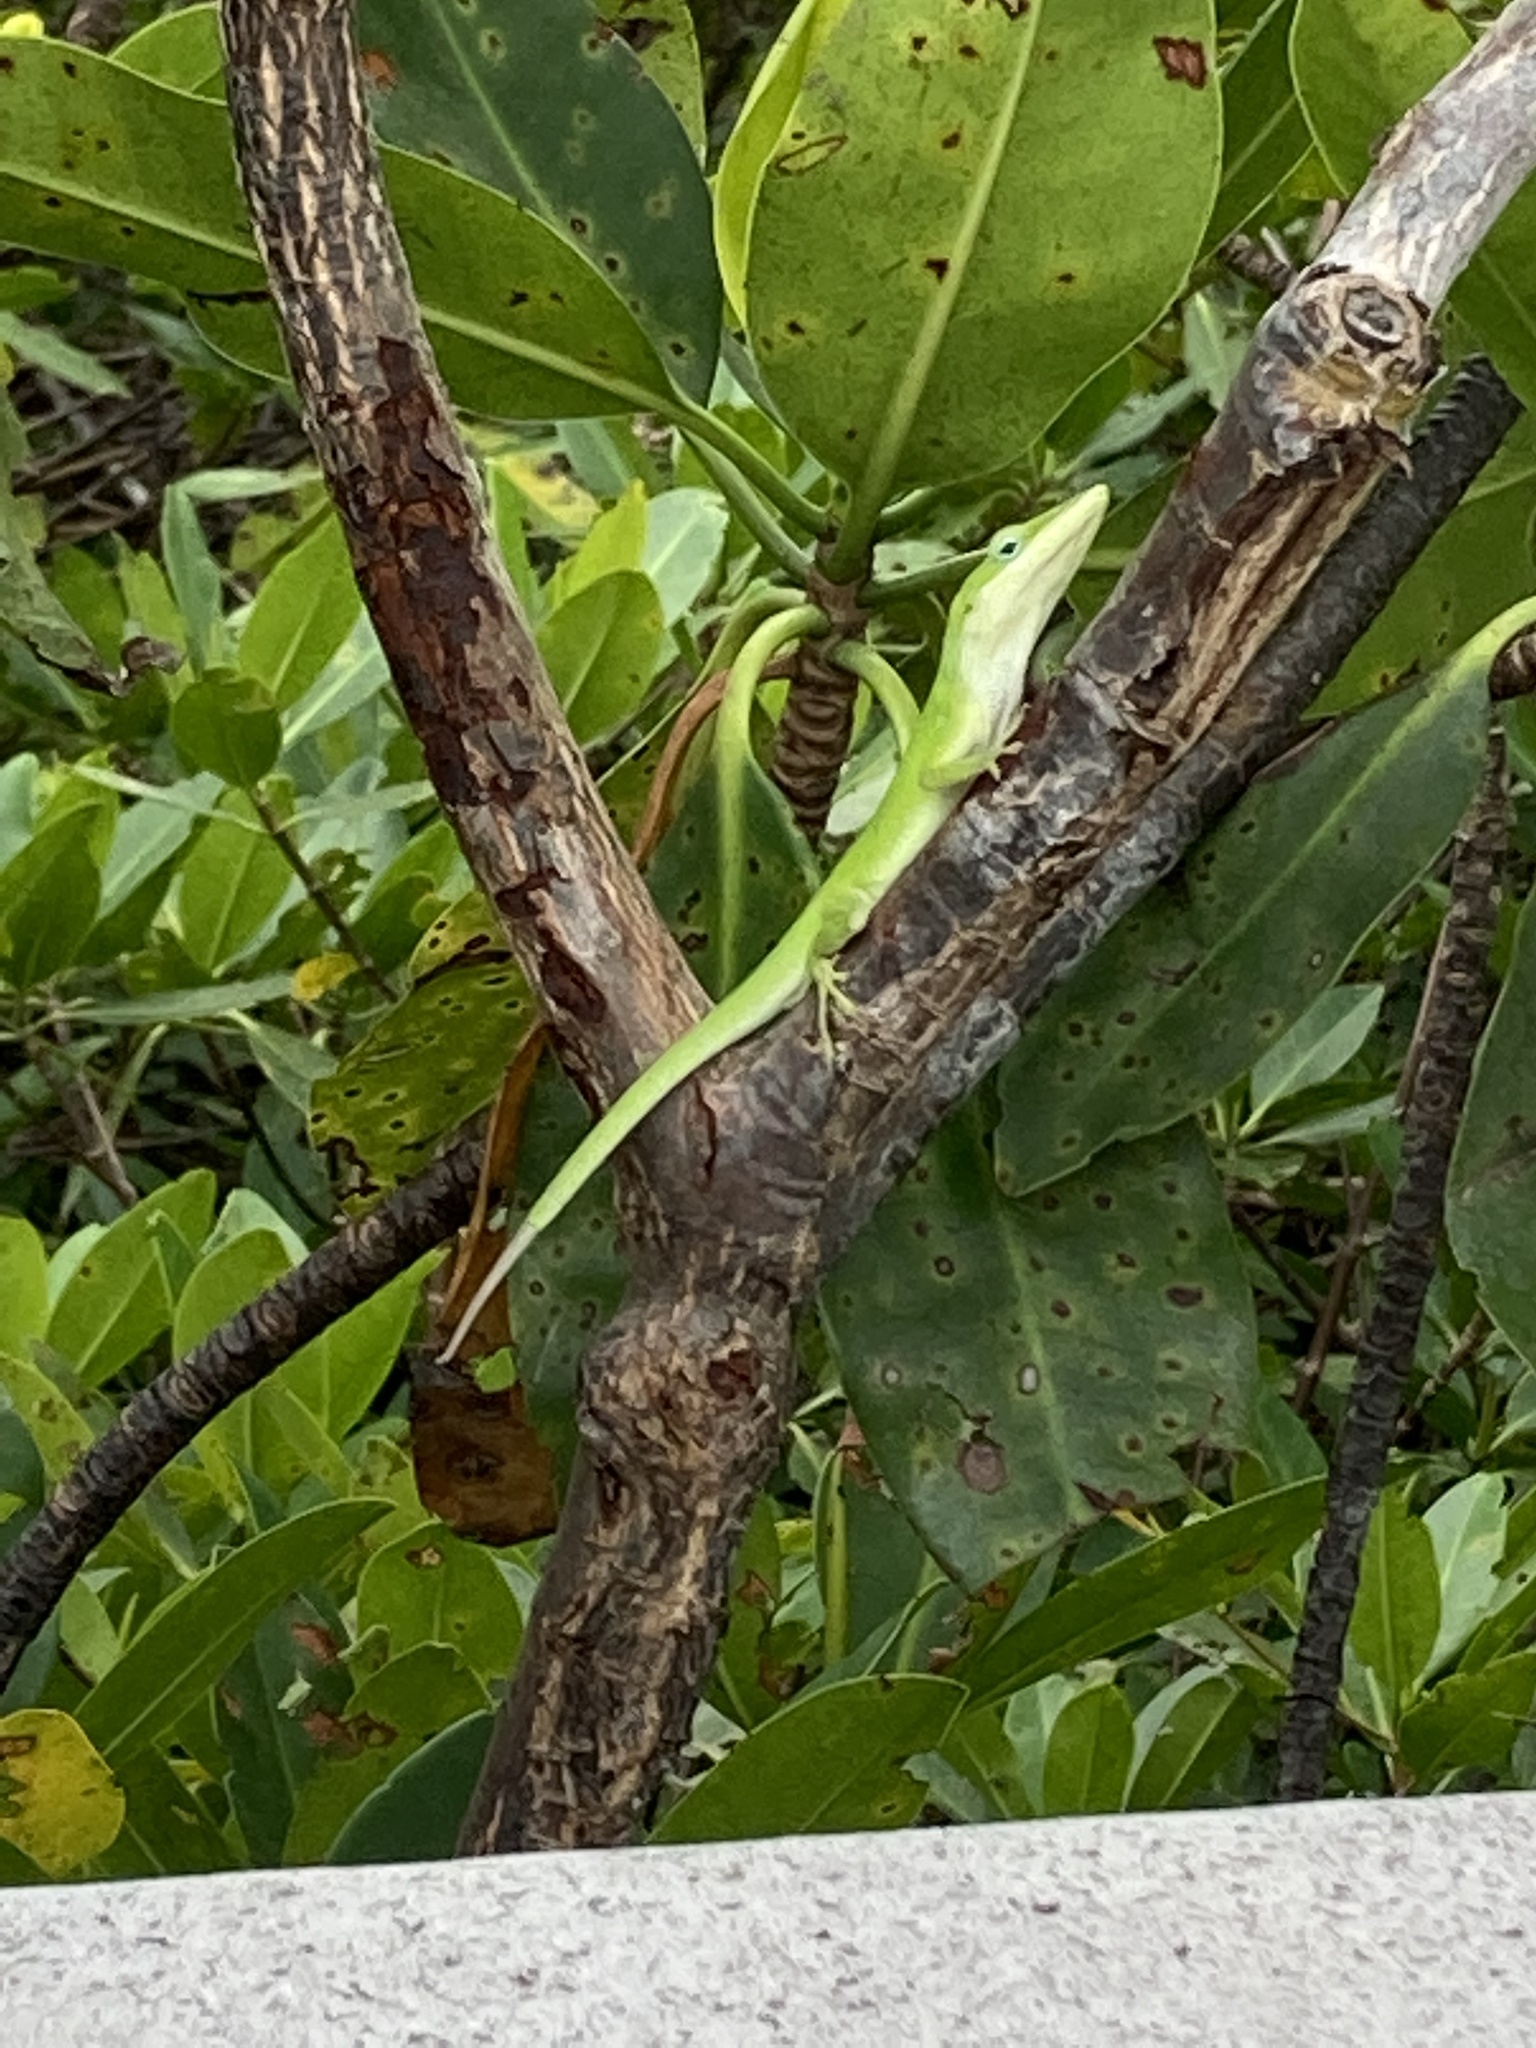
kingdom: Animalia
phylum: Chordata
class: Squamata
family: Dactyloidae
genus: Anolis
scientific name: Anolis carolinensis
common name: Green anole
